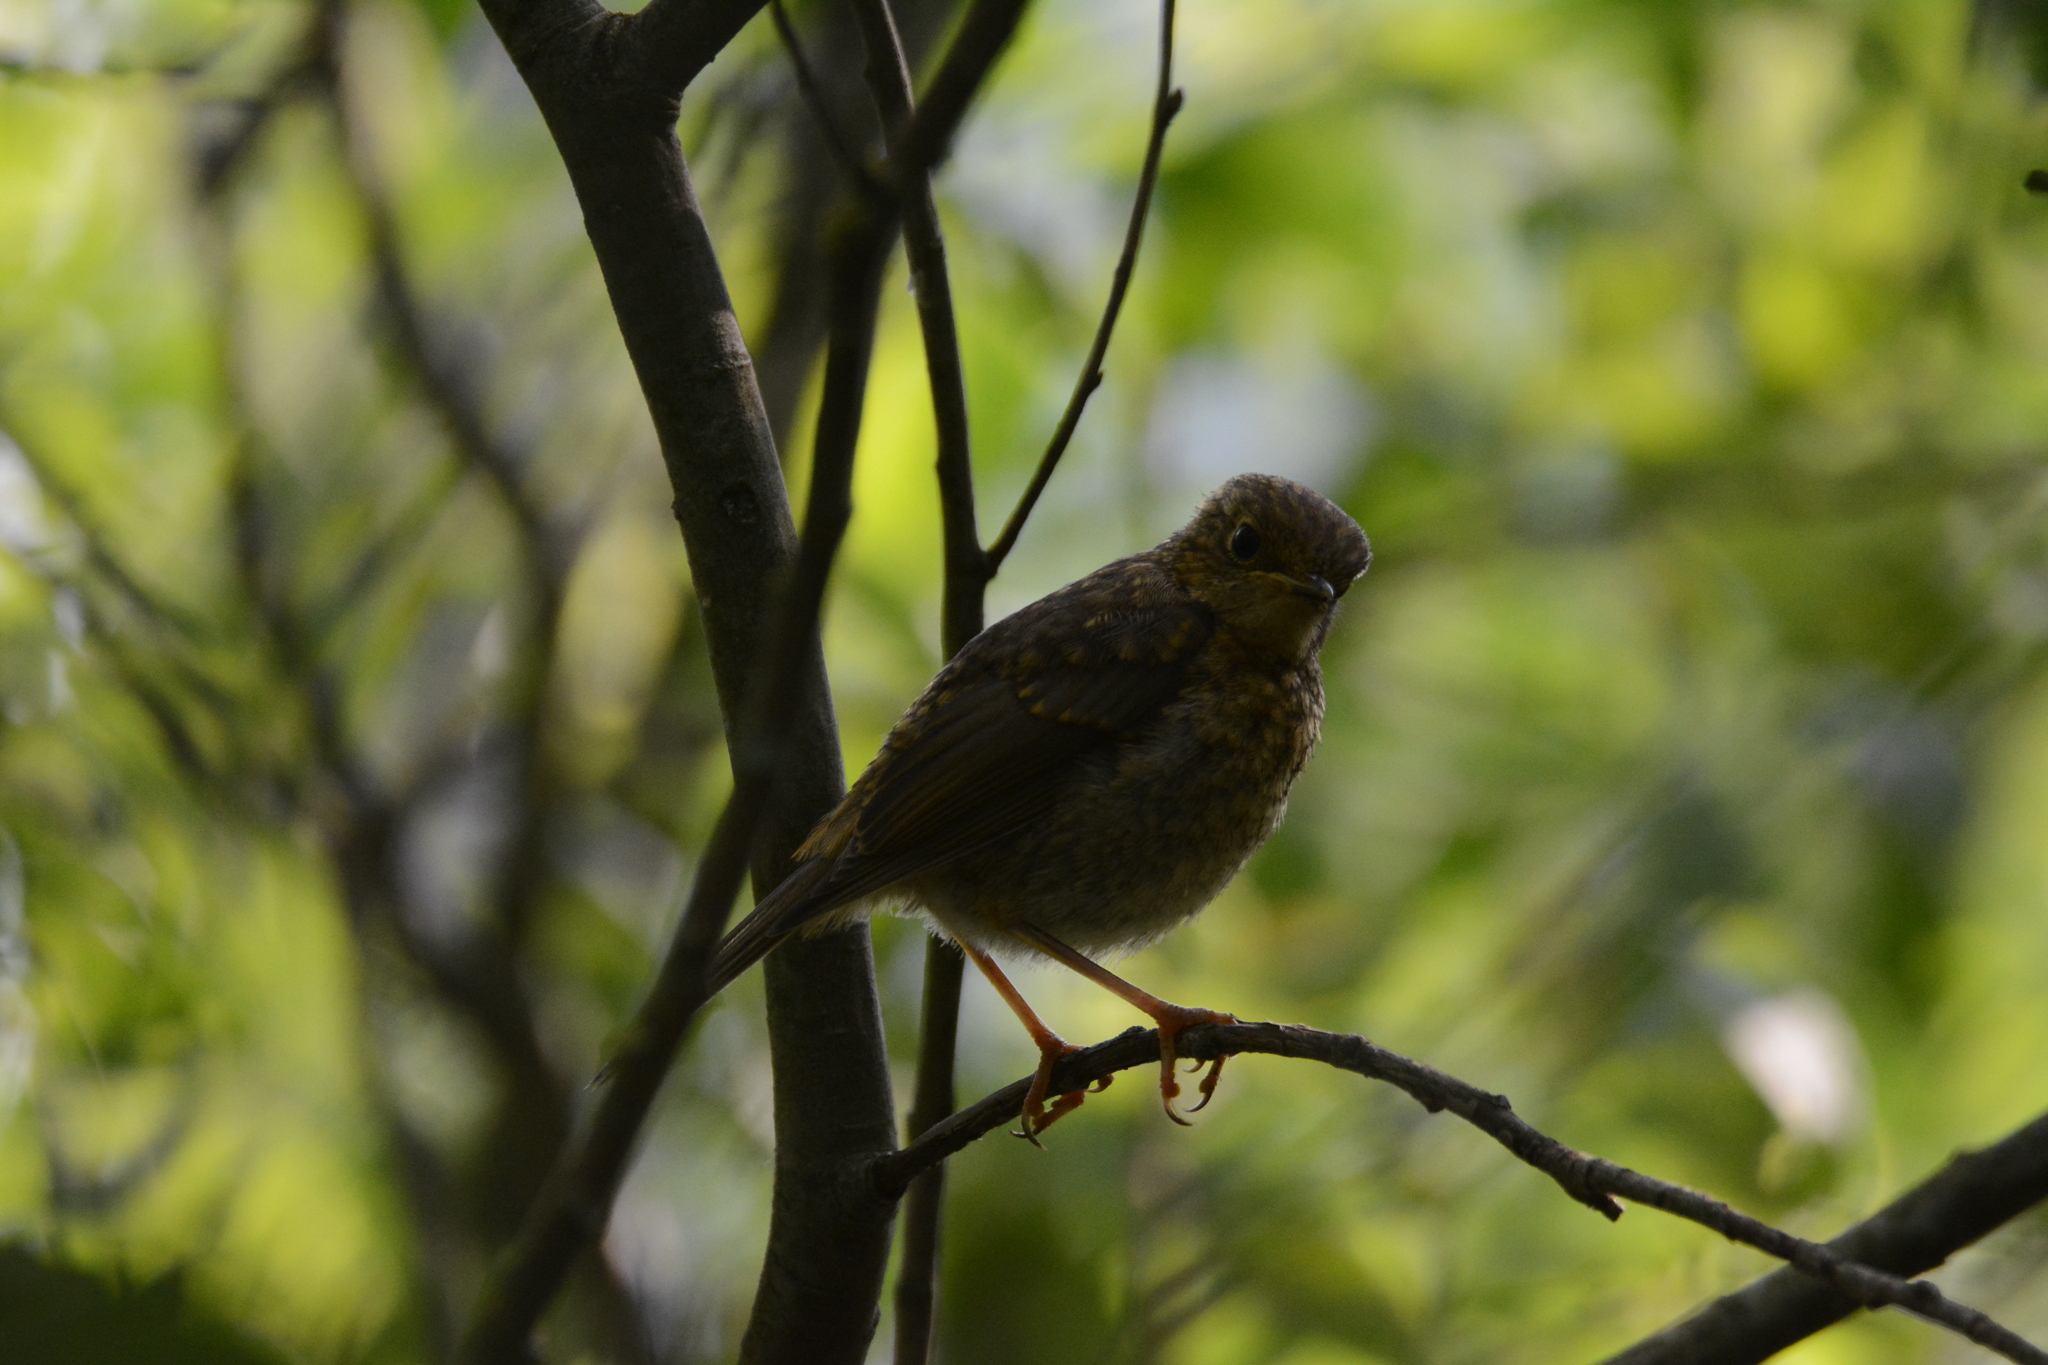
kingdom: Animalia
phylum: Chordata
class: Aves
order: Passeriformes
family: Muscicapidae
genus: Erithacus
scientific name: Erithacus rubecula
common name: European robin
